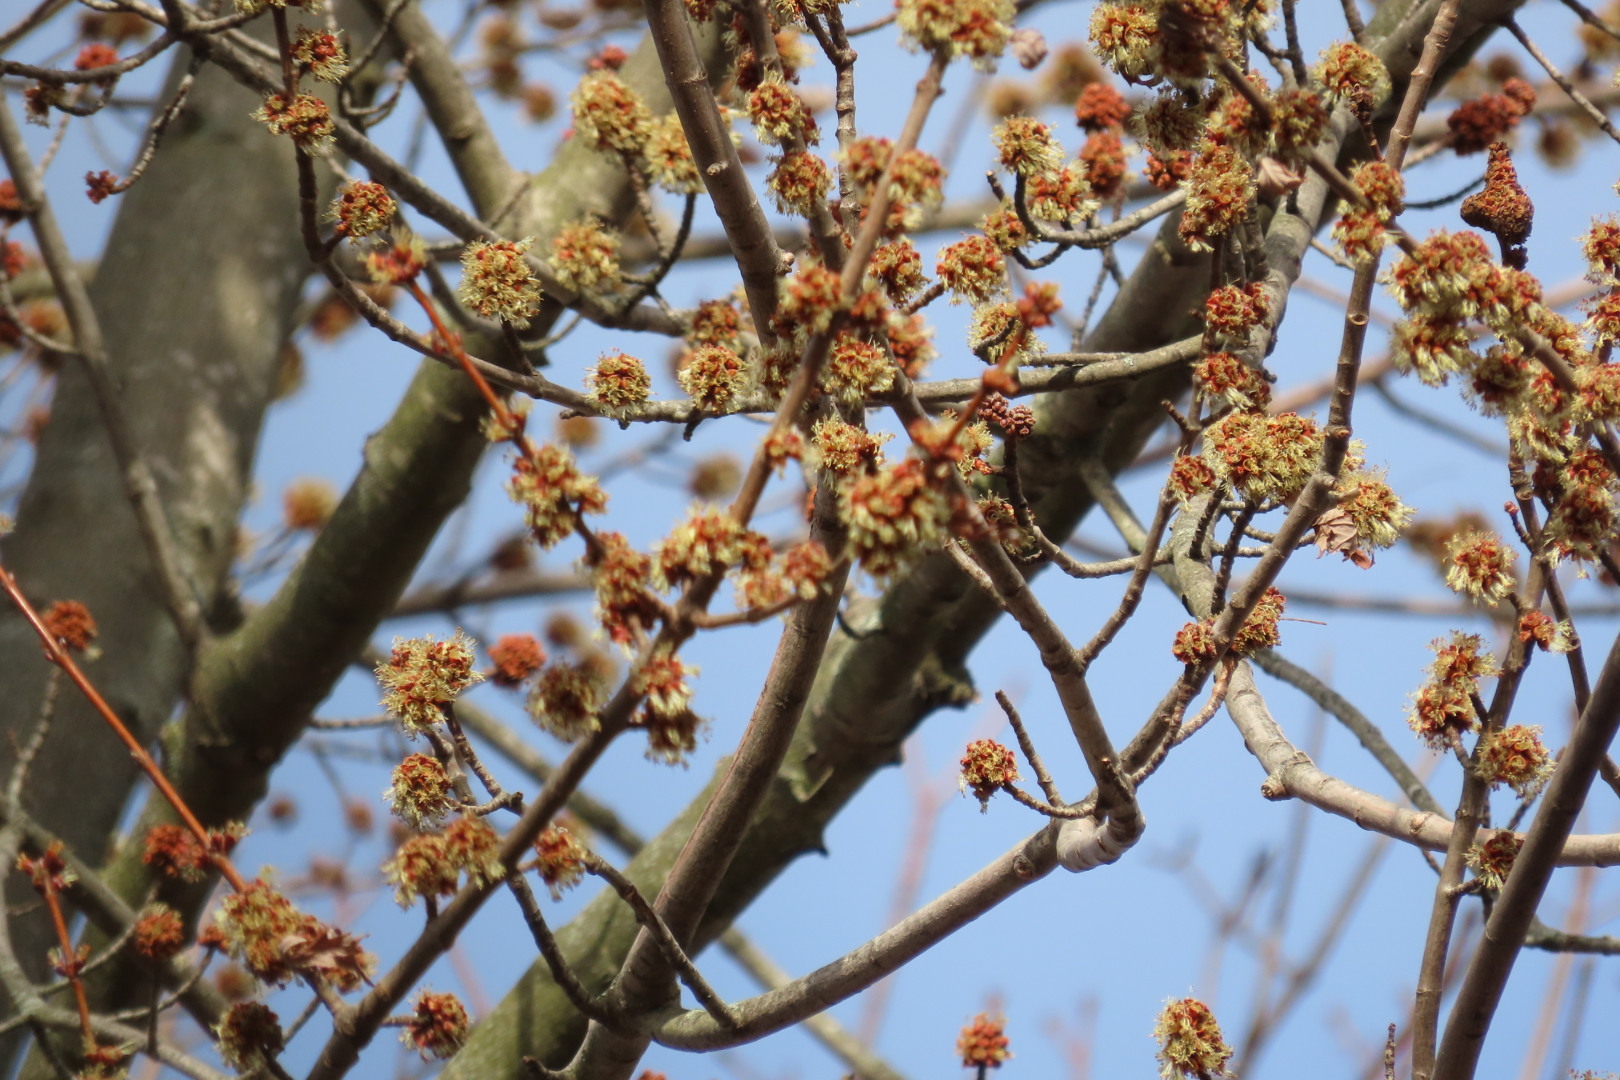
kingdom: Plantae
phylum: Tracheophyta
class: Magnoliopsida
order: Sapindales
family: Sapindaceae
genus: Acer
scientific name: Acer saccharinum
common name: Silver maple
